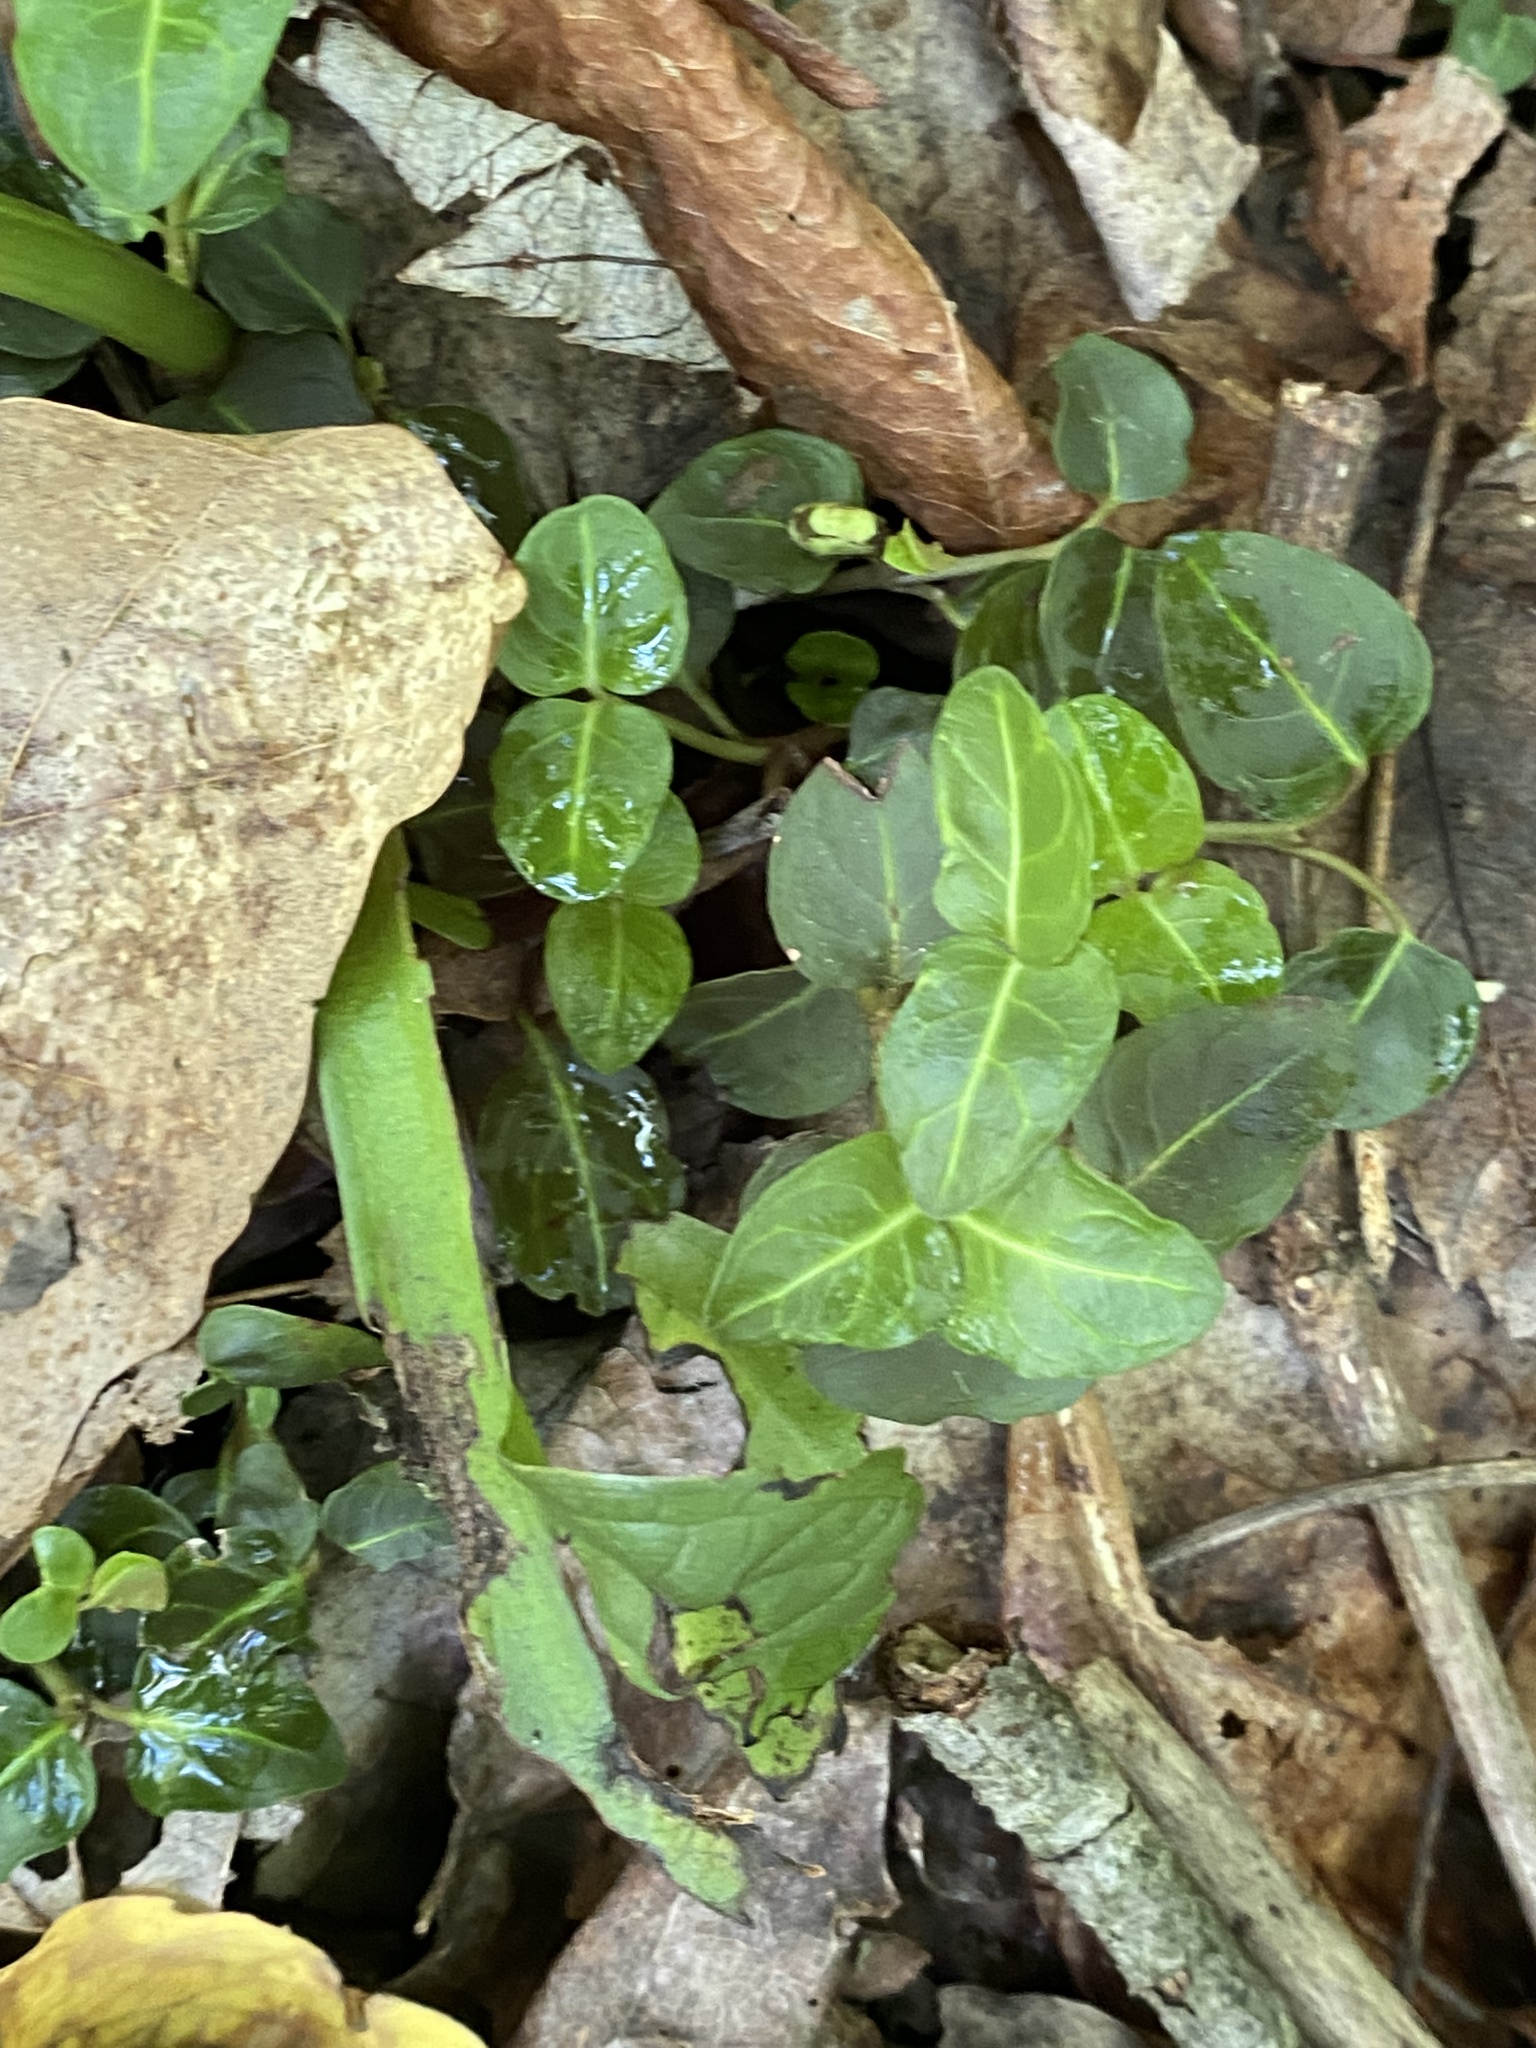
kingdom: Plantae
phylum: Tracheophyta
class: Magnoliopsida
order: Gentianales
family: Rubiaceae
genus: Mitchella
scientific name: Mitchella repens
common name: Partridge-berry
